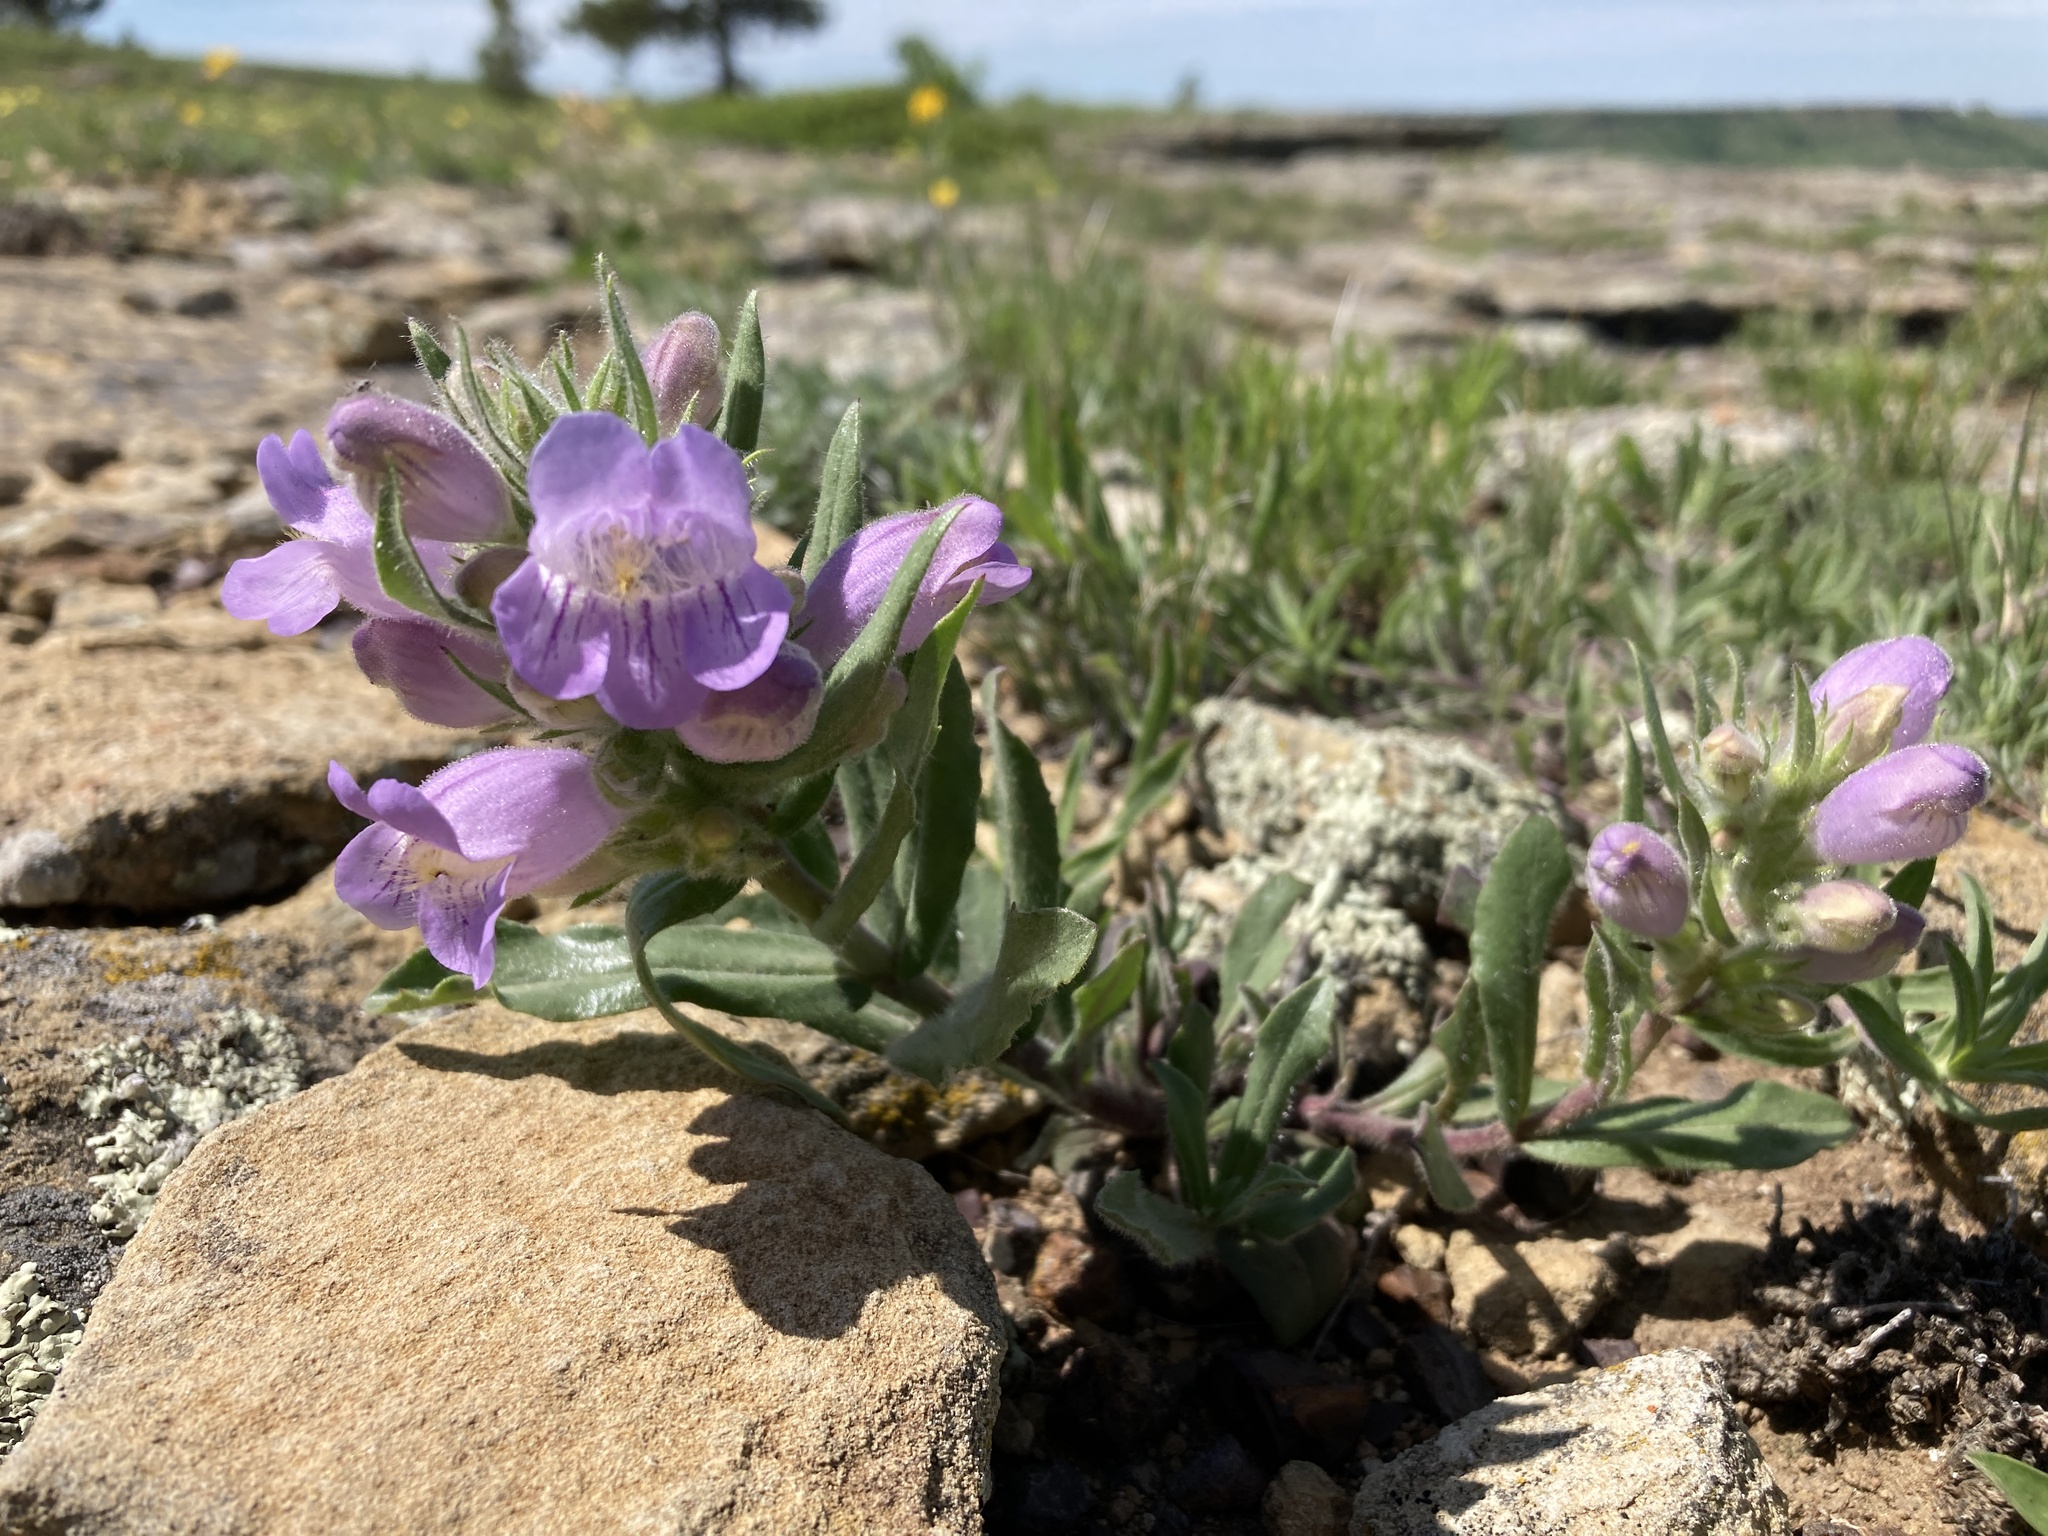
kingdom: Plantae
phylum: Tracheophyta
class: Magnoliopsida
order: Lamiales
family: Plantaginaceae
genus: Penstemon
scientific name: Penstemon eriantherus
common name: Crested beardtongue
